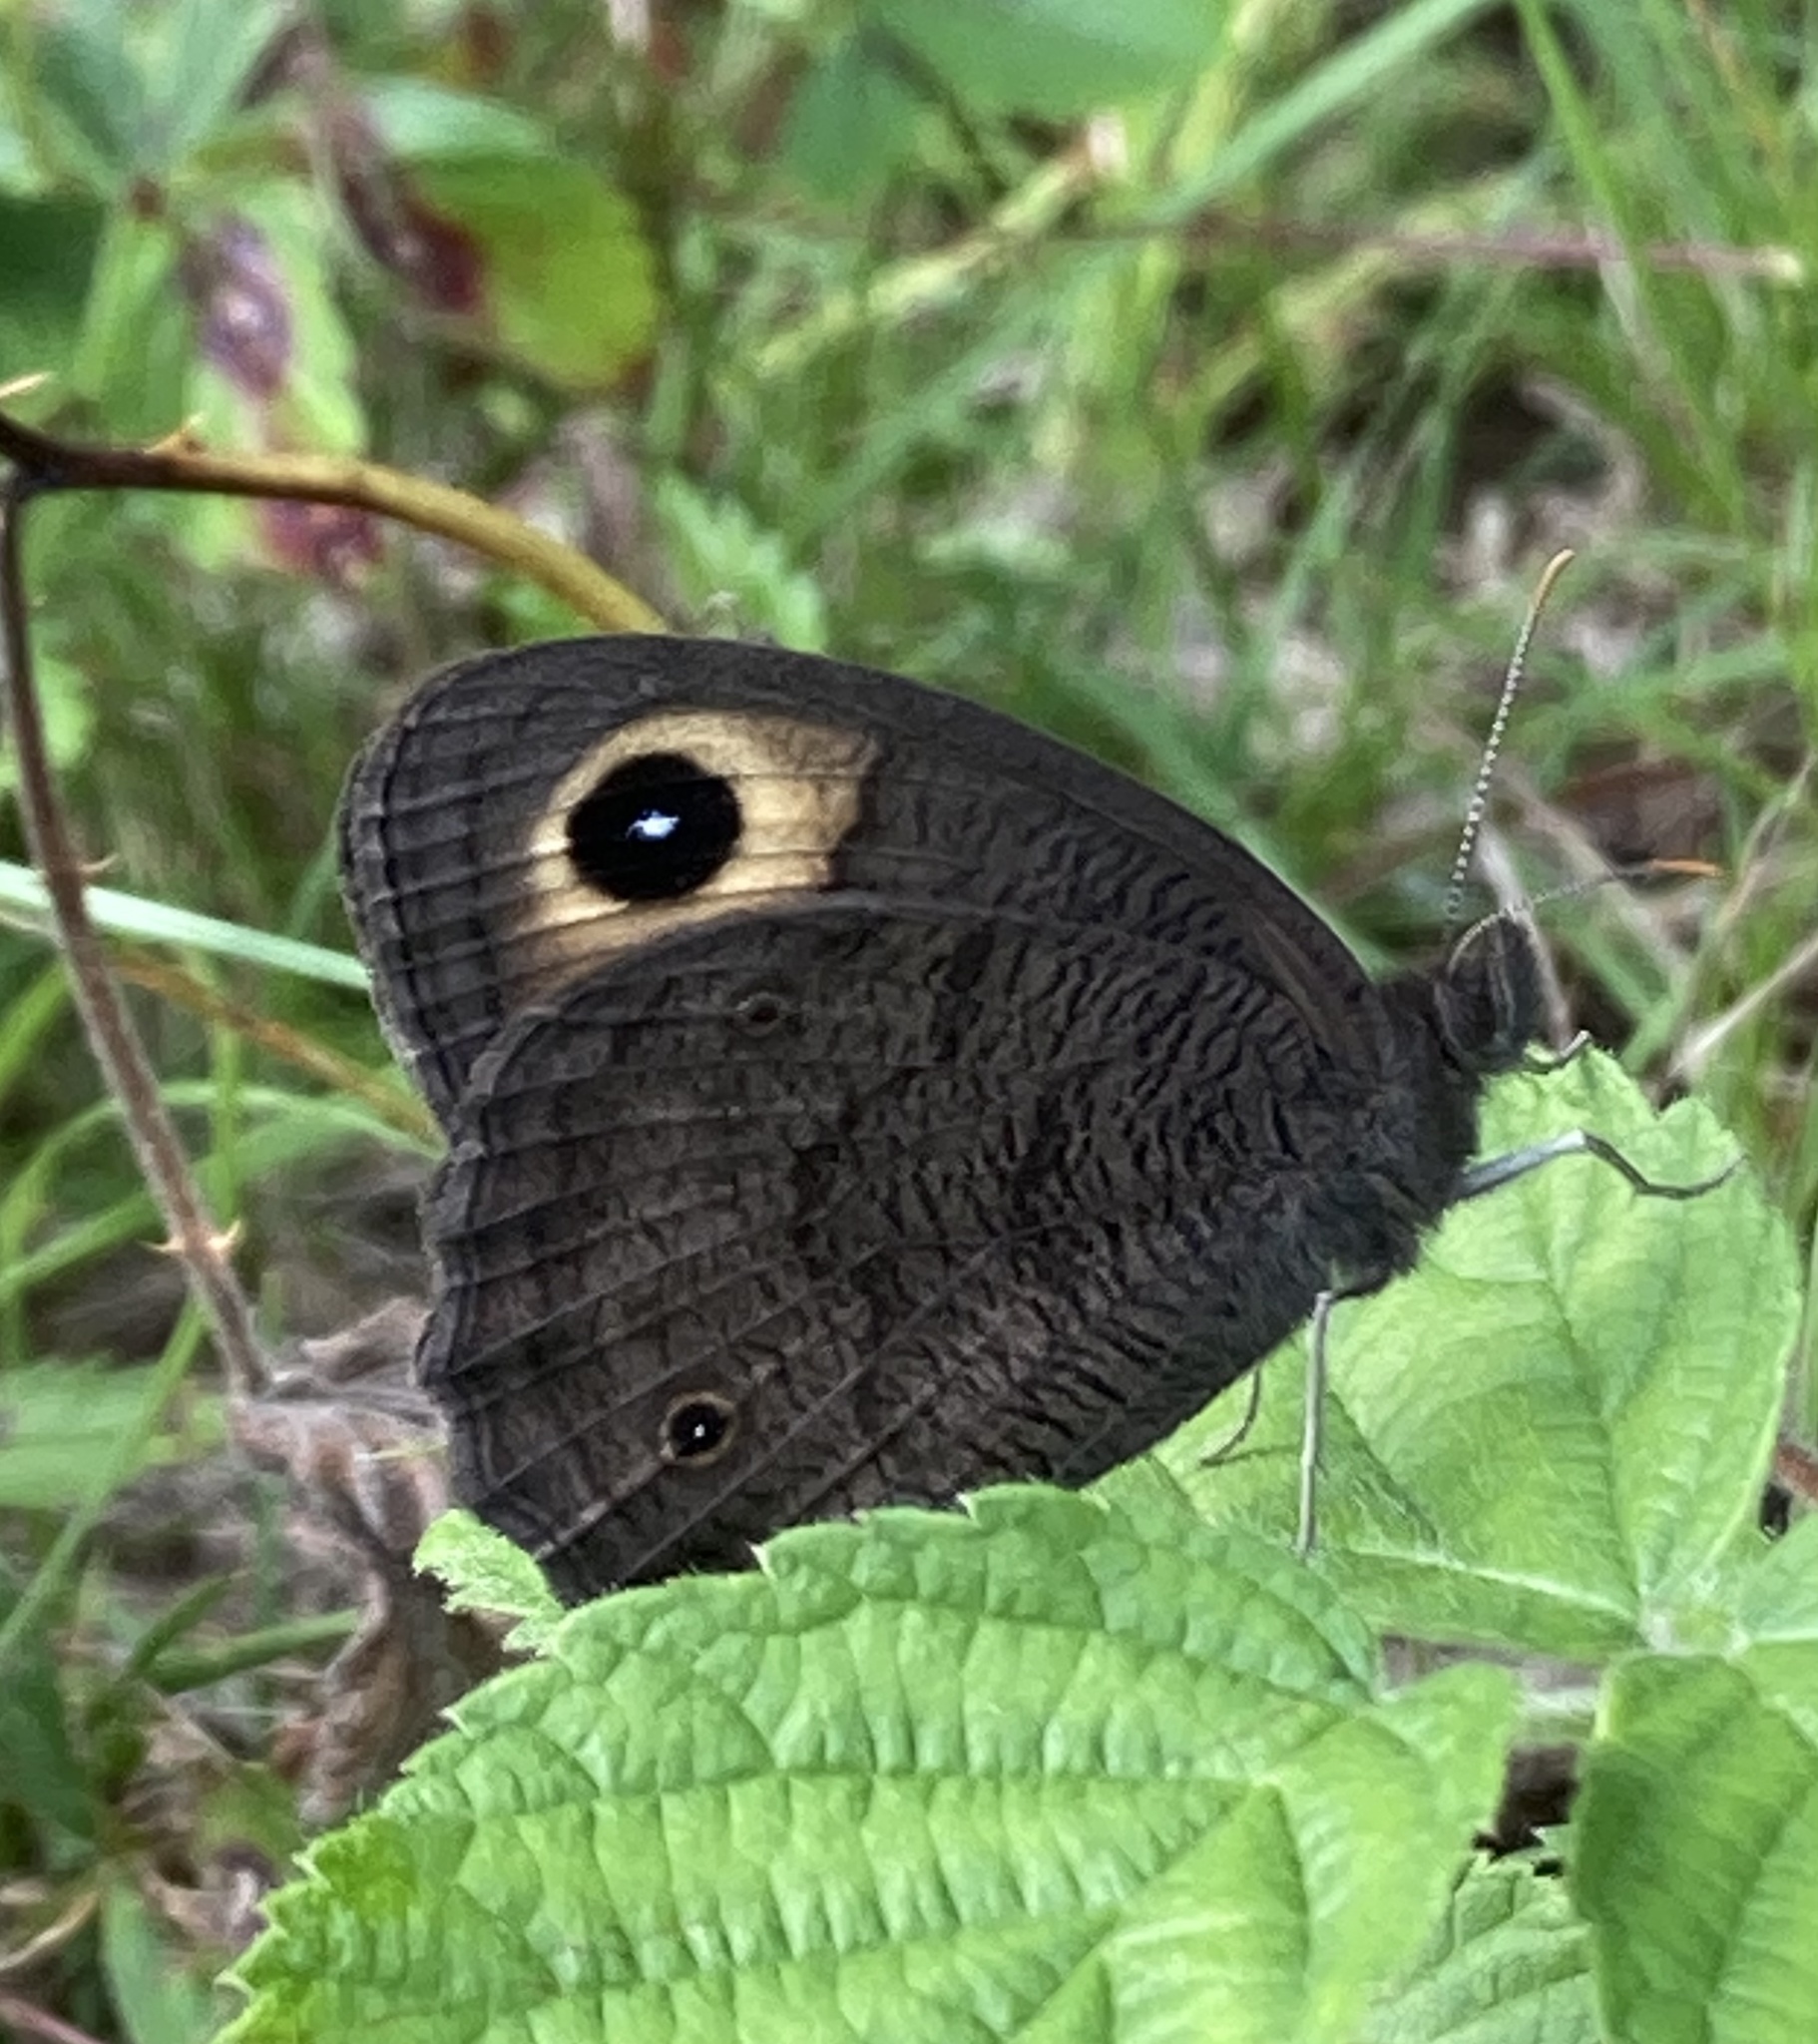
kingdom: Animalia
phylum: Arthropoda
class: Insecta
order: Lepidoptera
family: Nymphalidae
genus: Cercyonis
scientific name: Cercyonis pegala
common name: Common wood-nymph
